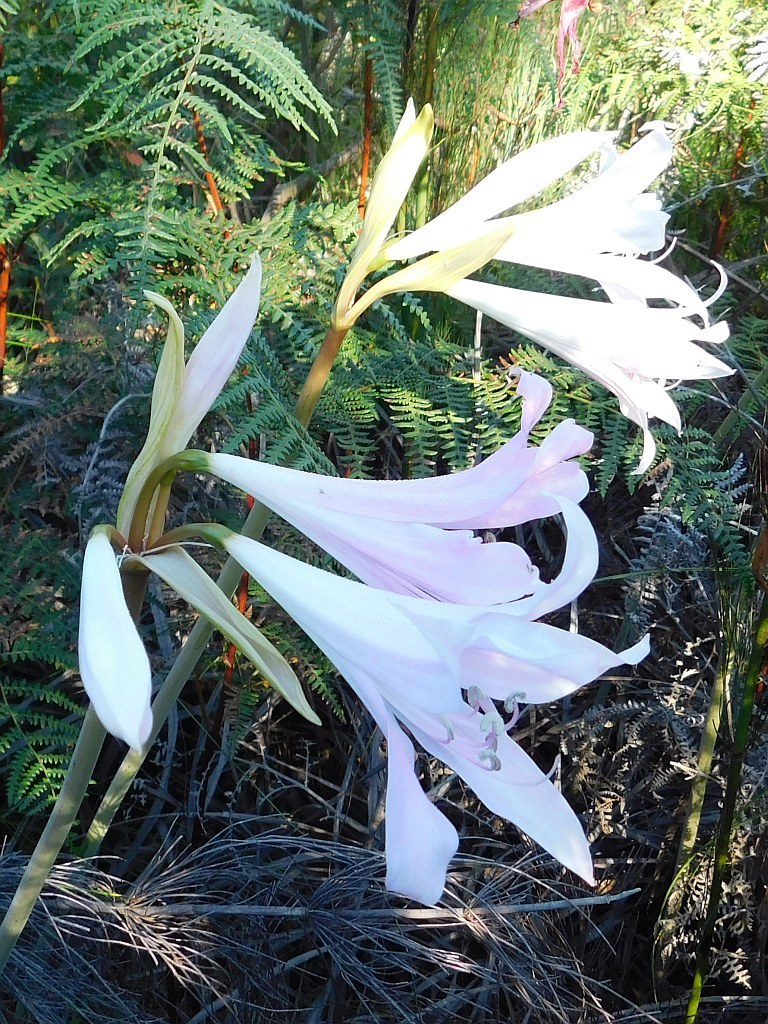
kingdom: Plantae
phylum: Tracheophyta
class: Liliopsida
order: Asparagales
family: Amaryllidaceae
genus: Amaryllis
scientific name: Amaryllis belladonna
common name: Jersey lily
